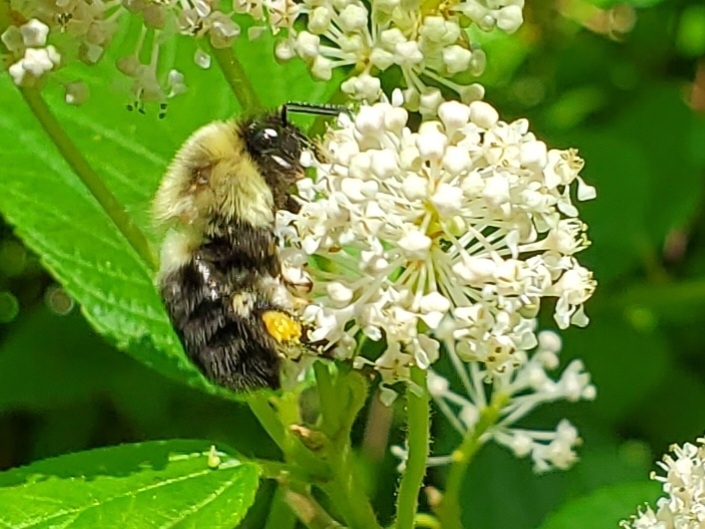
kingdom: Animalia
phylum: Arthropoda
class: Insecta
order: Hymenoptera
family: Apidae
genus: Bombus
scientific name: Bombus bimaculatus
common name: Two-spotted bumble bee
